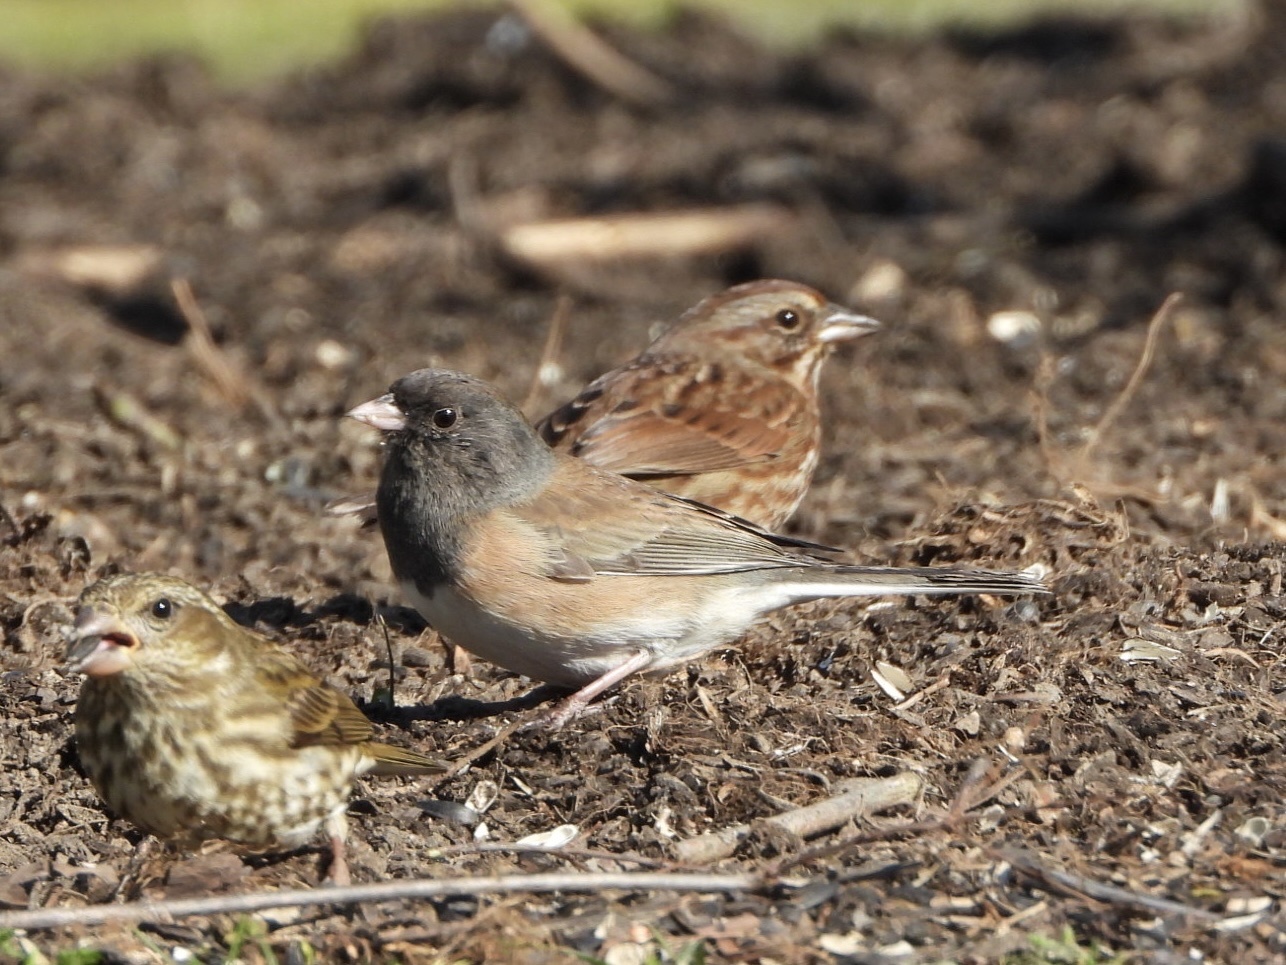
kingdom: Animalia
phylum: Chordata
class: Aves
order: Passeriformes
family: Passerellidae
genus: Junco
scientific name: Junco hyemalis
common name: Dark-eyed junco
